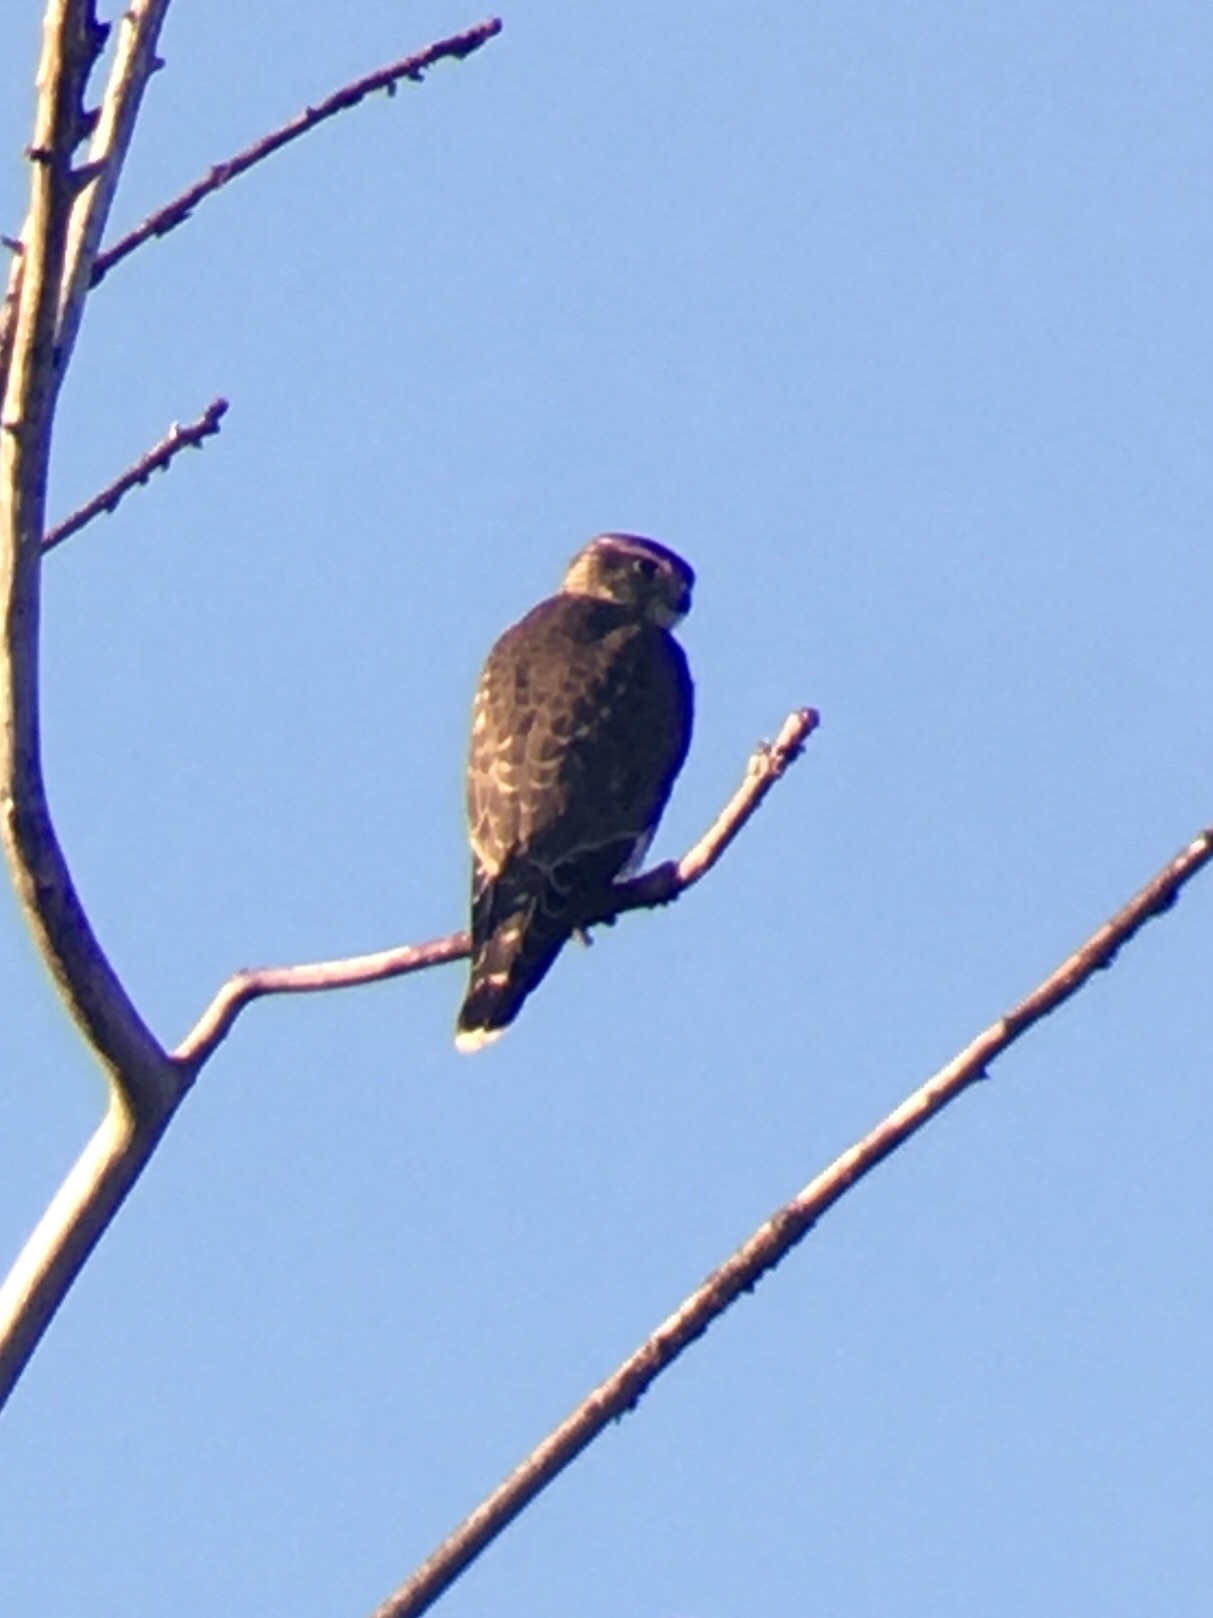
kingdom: Animalia
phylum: Chordata
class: Aves
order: Falconiformes
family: Falconidae
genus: Falco
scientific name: Falco columbarius
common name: Merlin
